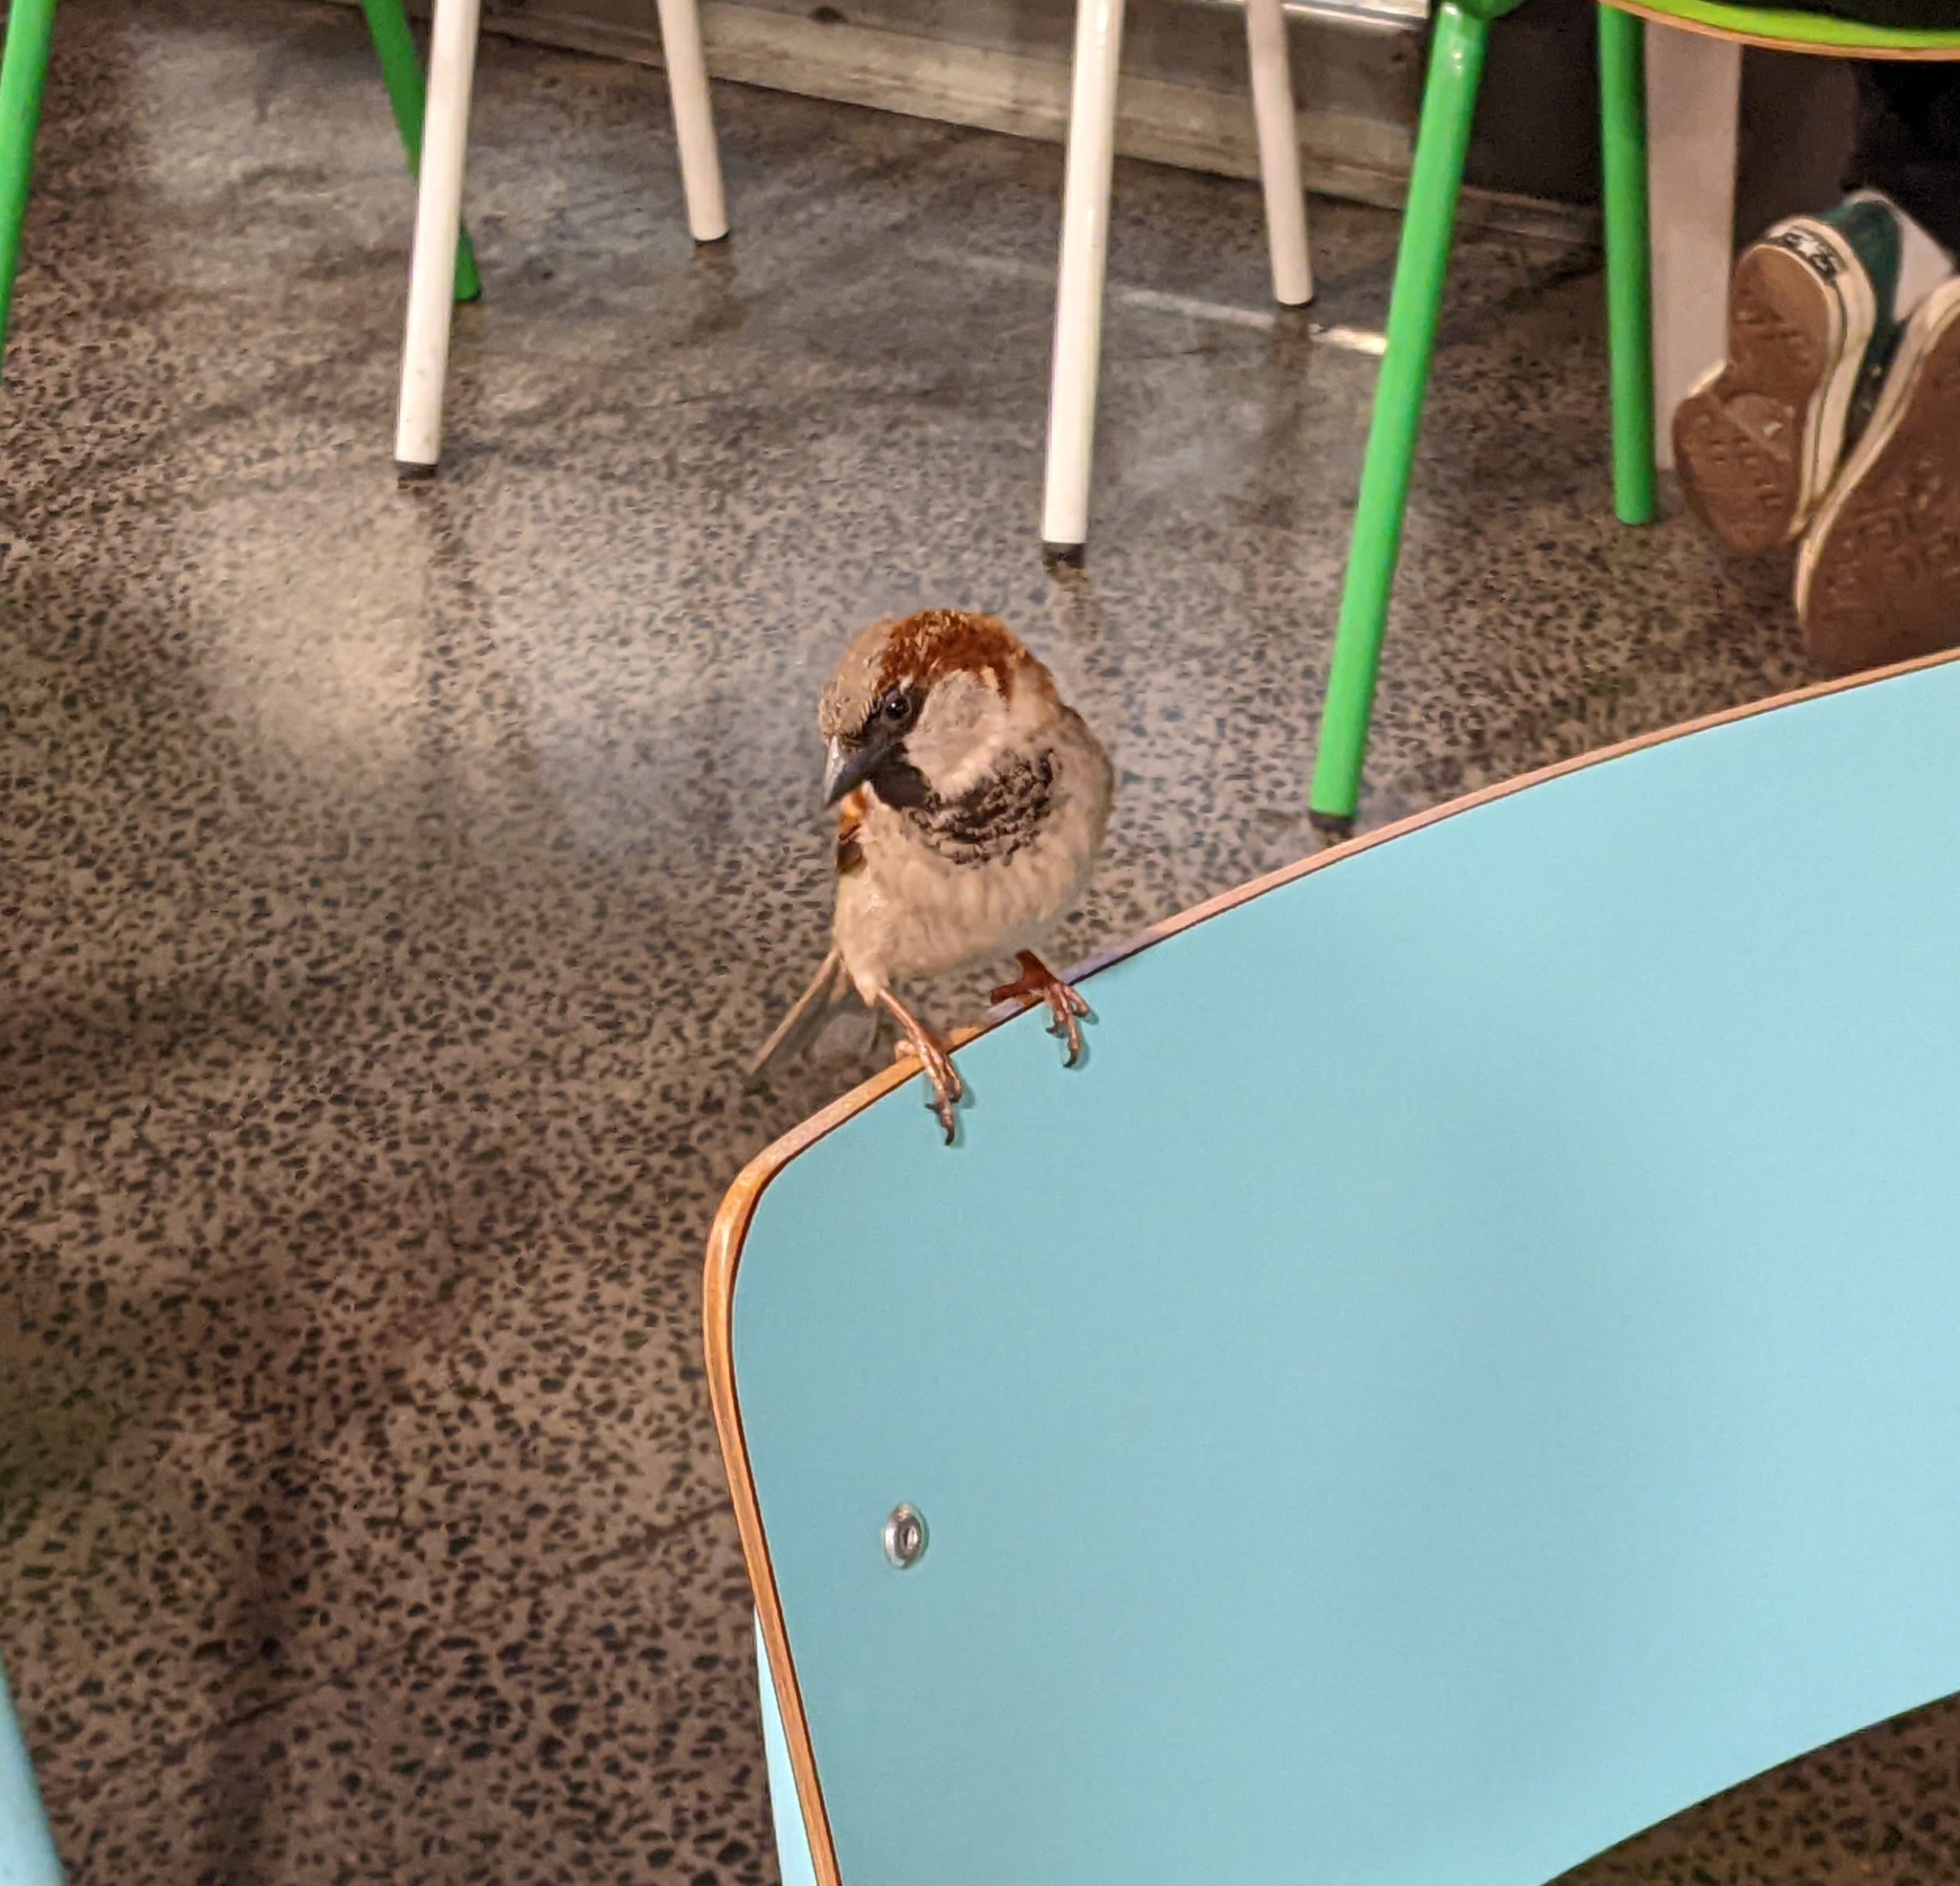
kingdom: Animalia
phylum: Chordata
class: Aves
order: Passeriformes
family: Passeridae
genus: Passer
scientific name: Passer domesticus
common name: House sparrow
